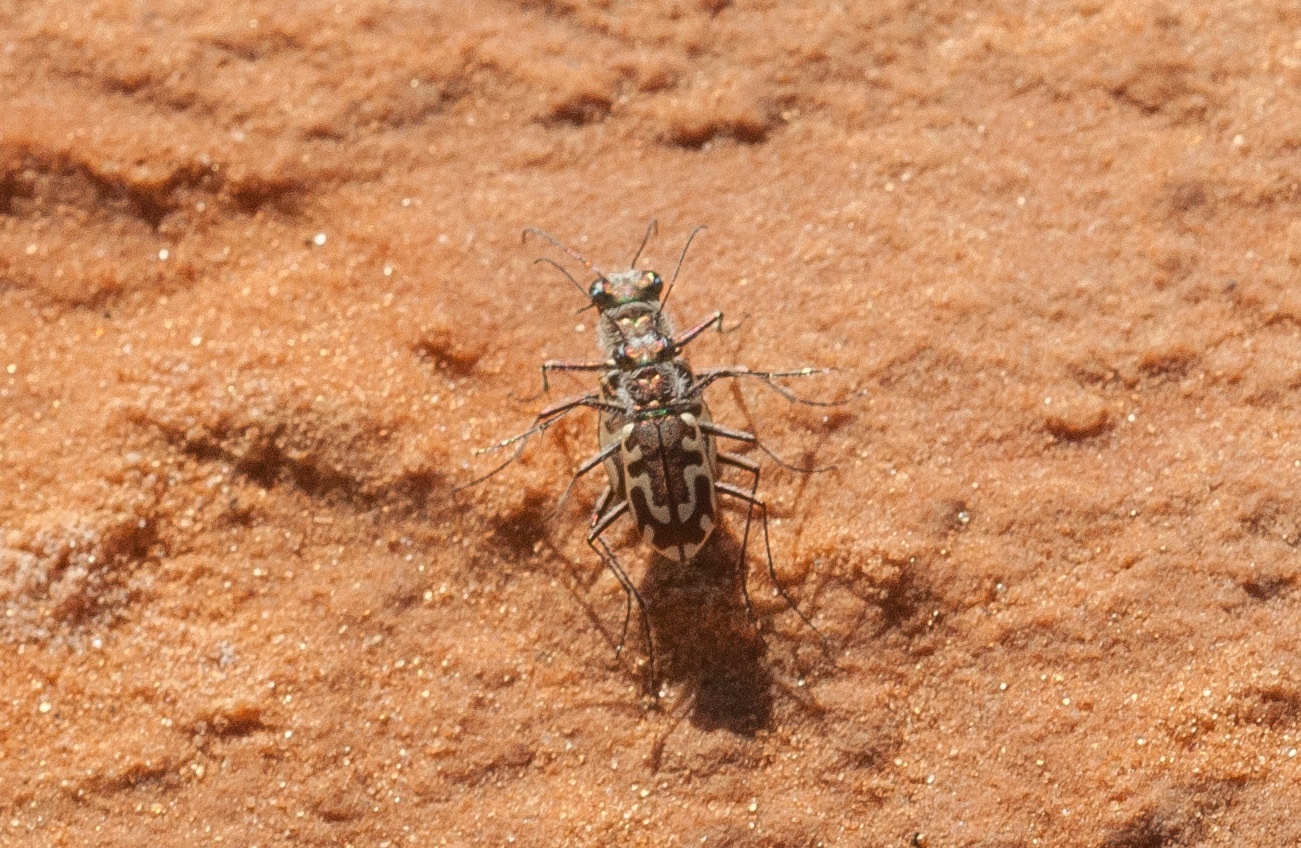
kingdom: Animalia
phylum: Arthropoda
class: Insecta
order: Coleoptera
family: Carabidae
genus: Cicindela
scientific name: Cicindela hirticollis
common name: Hairy-necked tiger beetle
